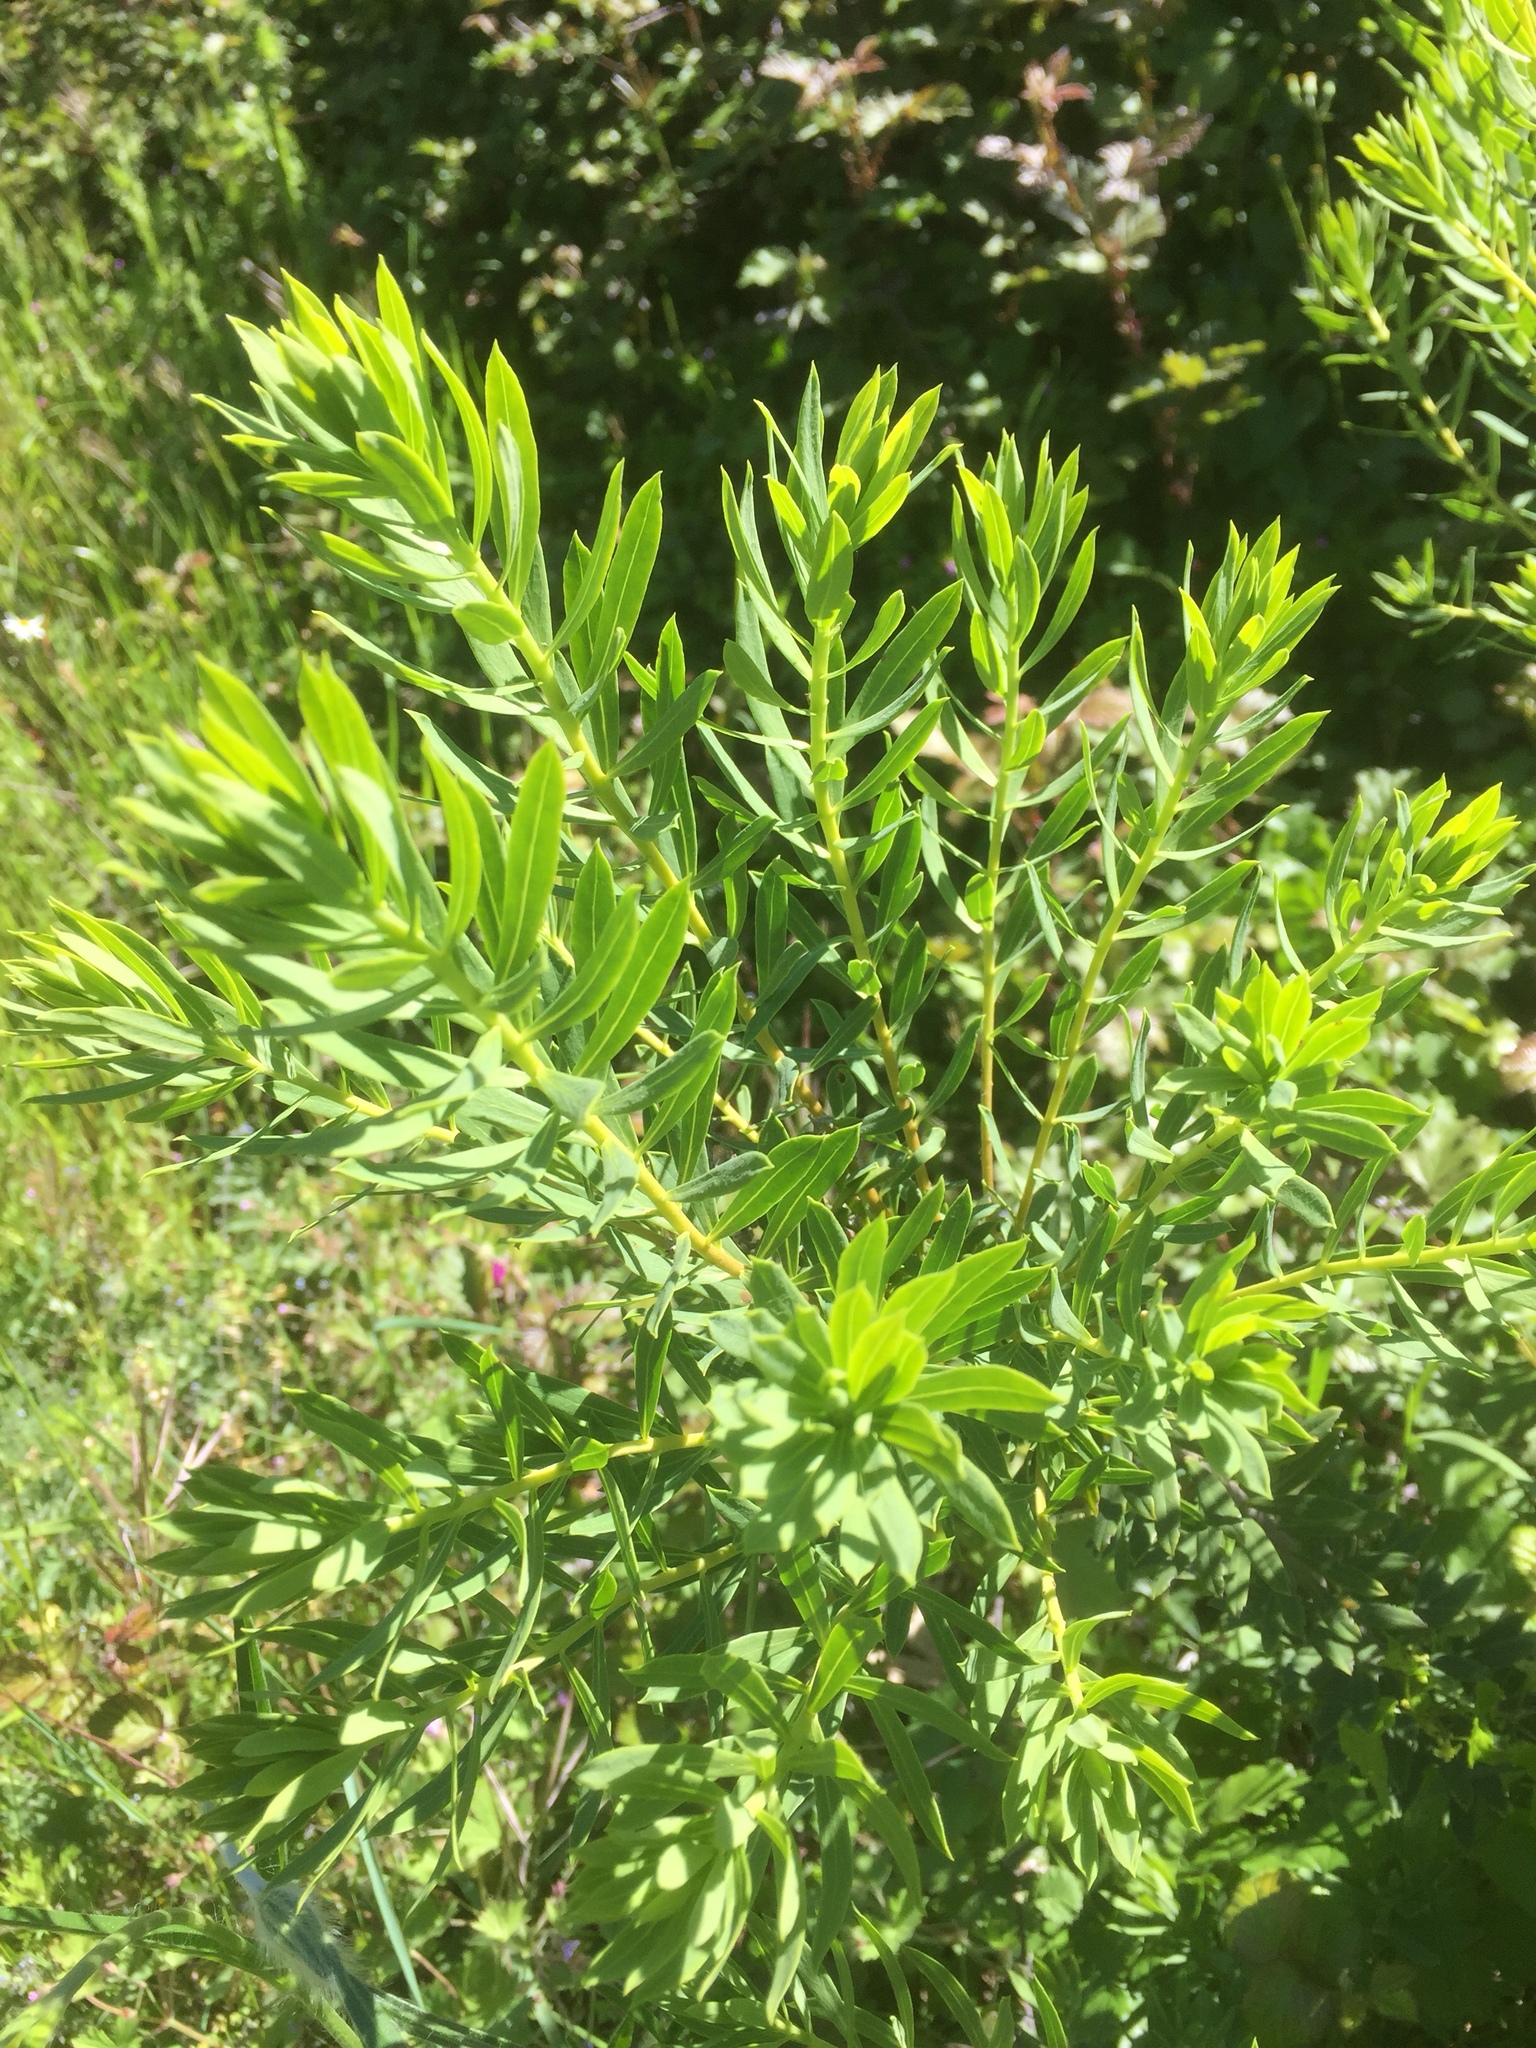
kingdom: Plantae
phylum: Tracheophyta
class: Magnoliopsida
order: Malvales
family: Thymelaeaceae
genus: Daphne
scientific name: Daphne gnidium
